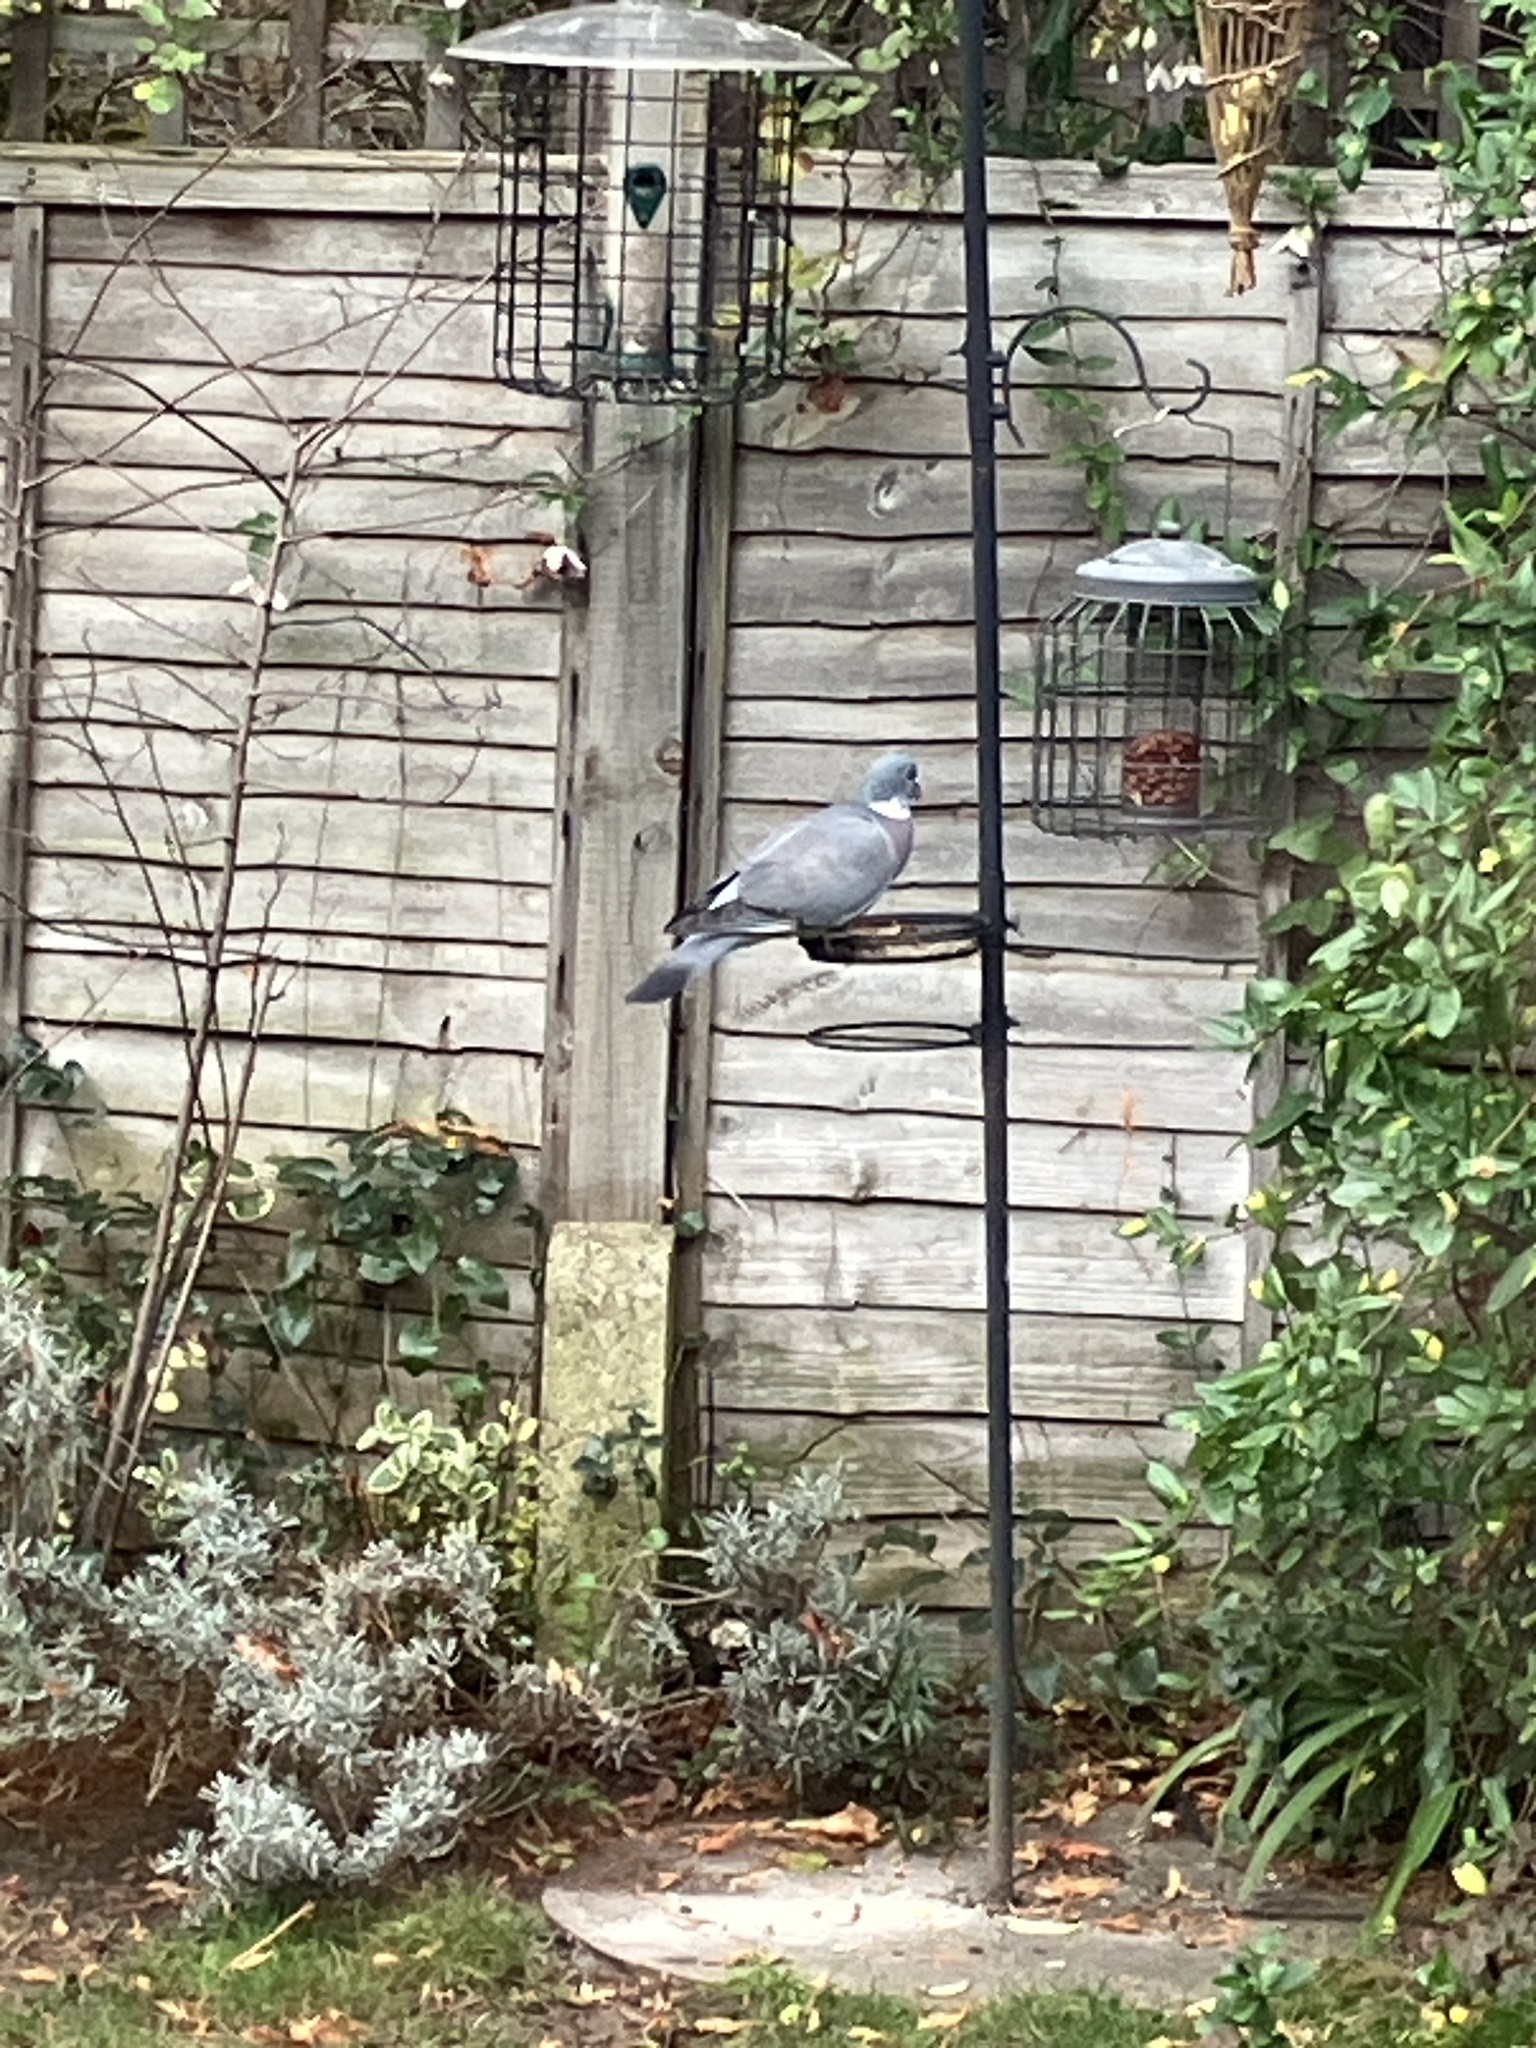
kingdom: Animalia
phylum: Chordata
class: Aves
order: Columbiformes
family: Columbidae
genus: Columba
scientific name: Columba palumbus
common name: Common wood pigeon
